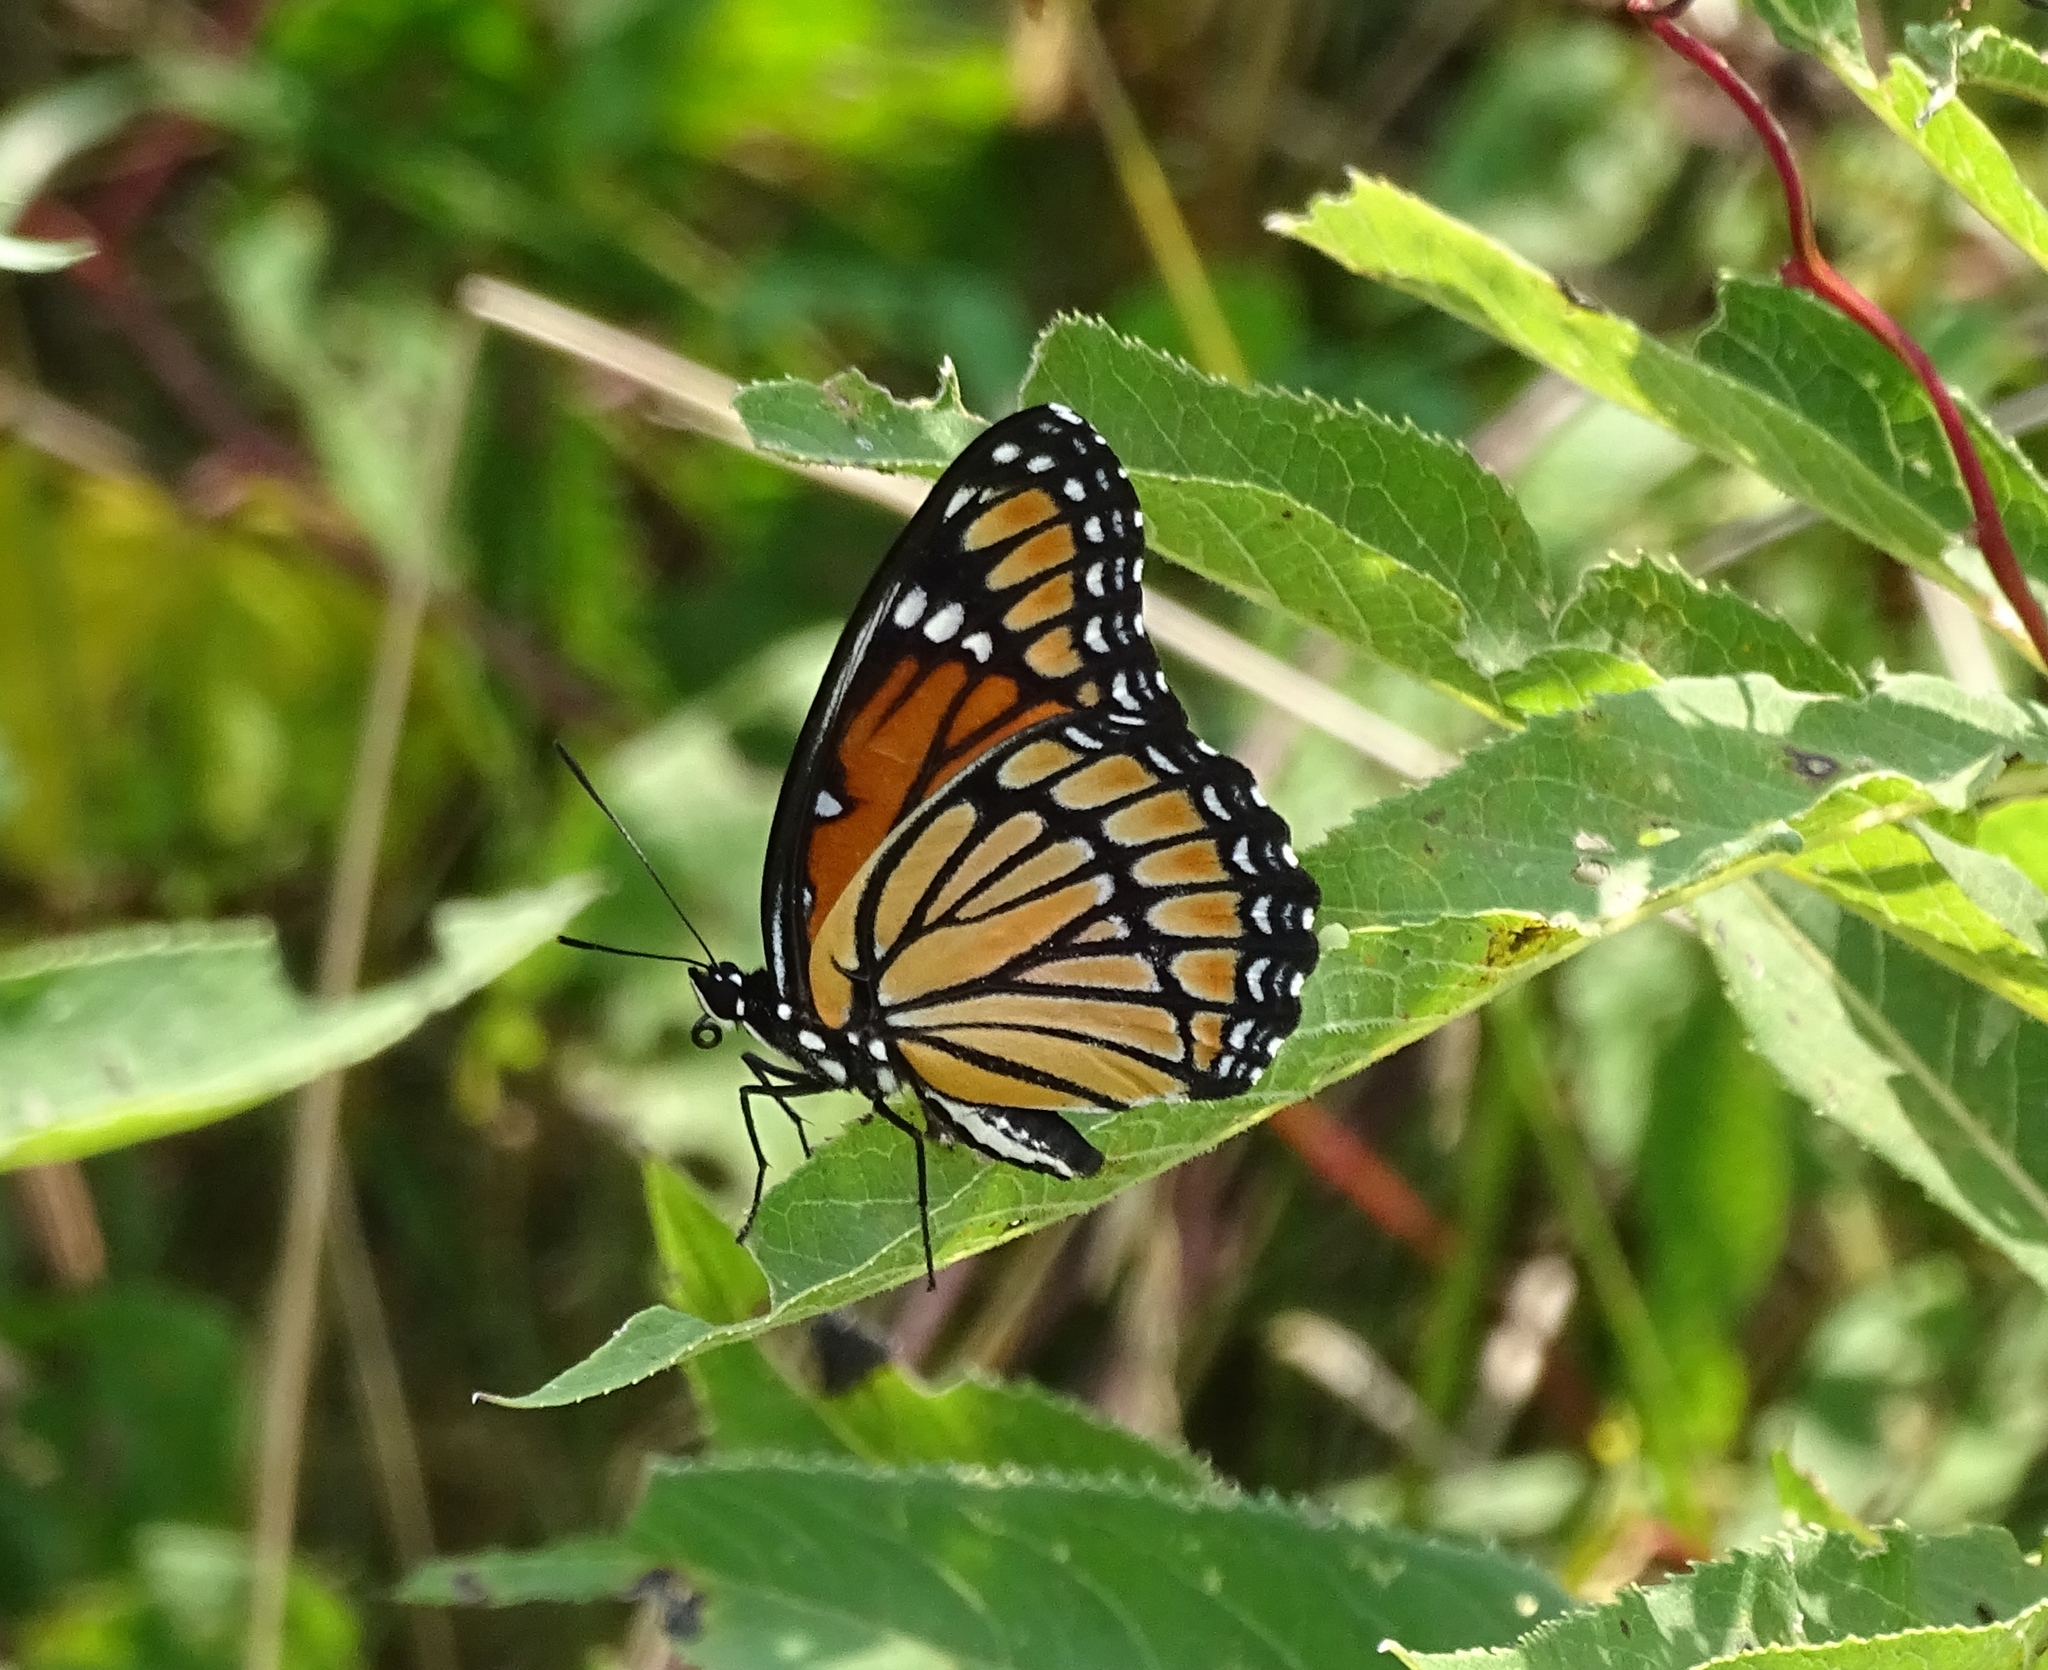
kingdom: Animalia
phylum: Arthropoda
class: Insecta
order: Lepidoptera
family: Nymphalidae
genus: Limenitis
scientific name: Limenitis archippus
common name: Viceroy
